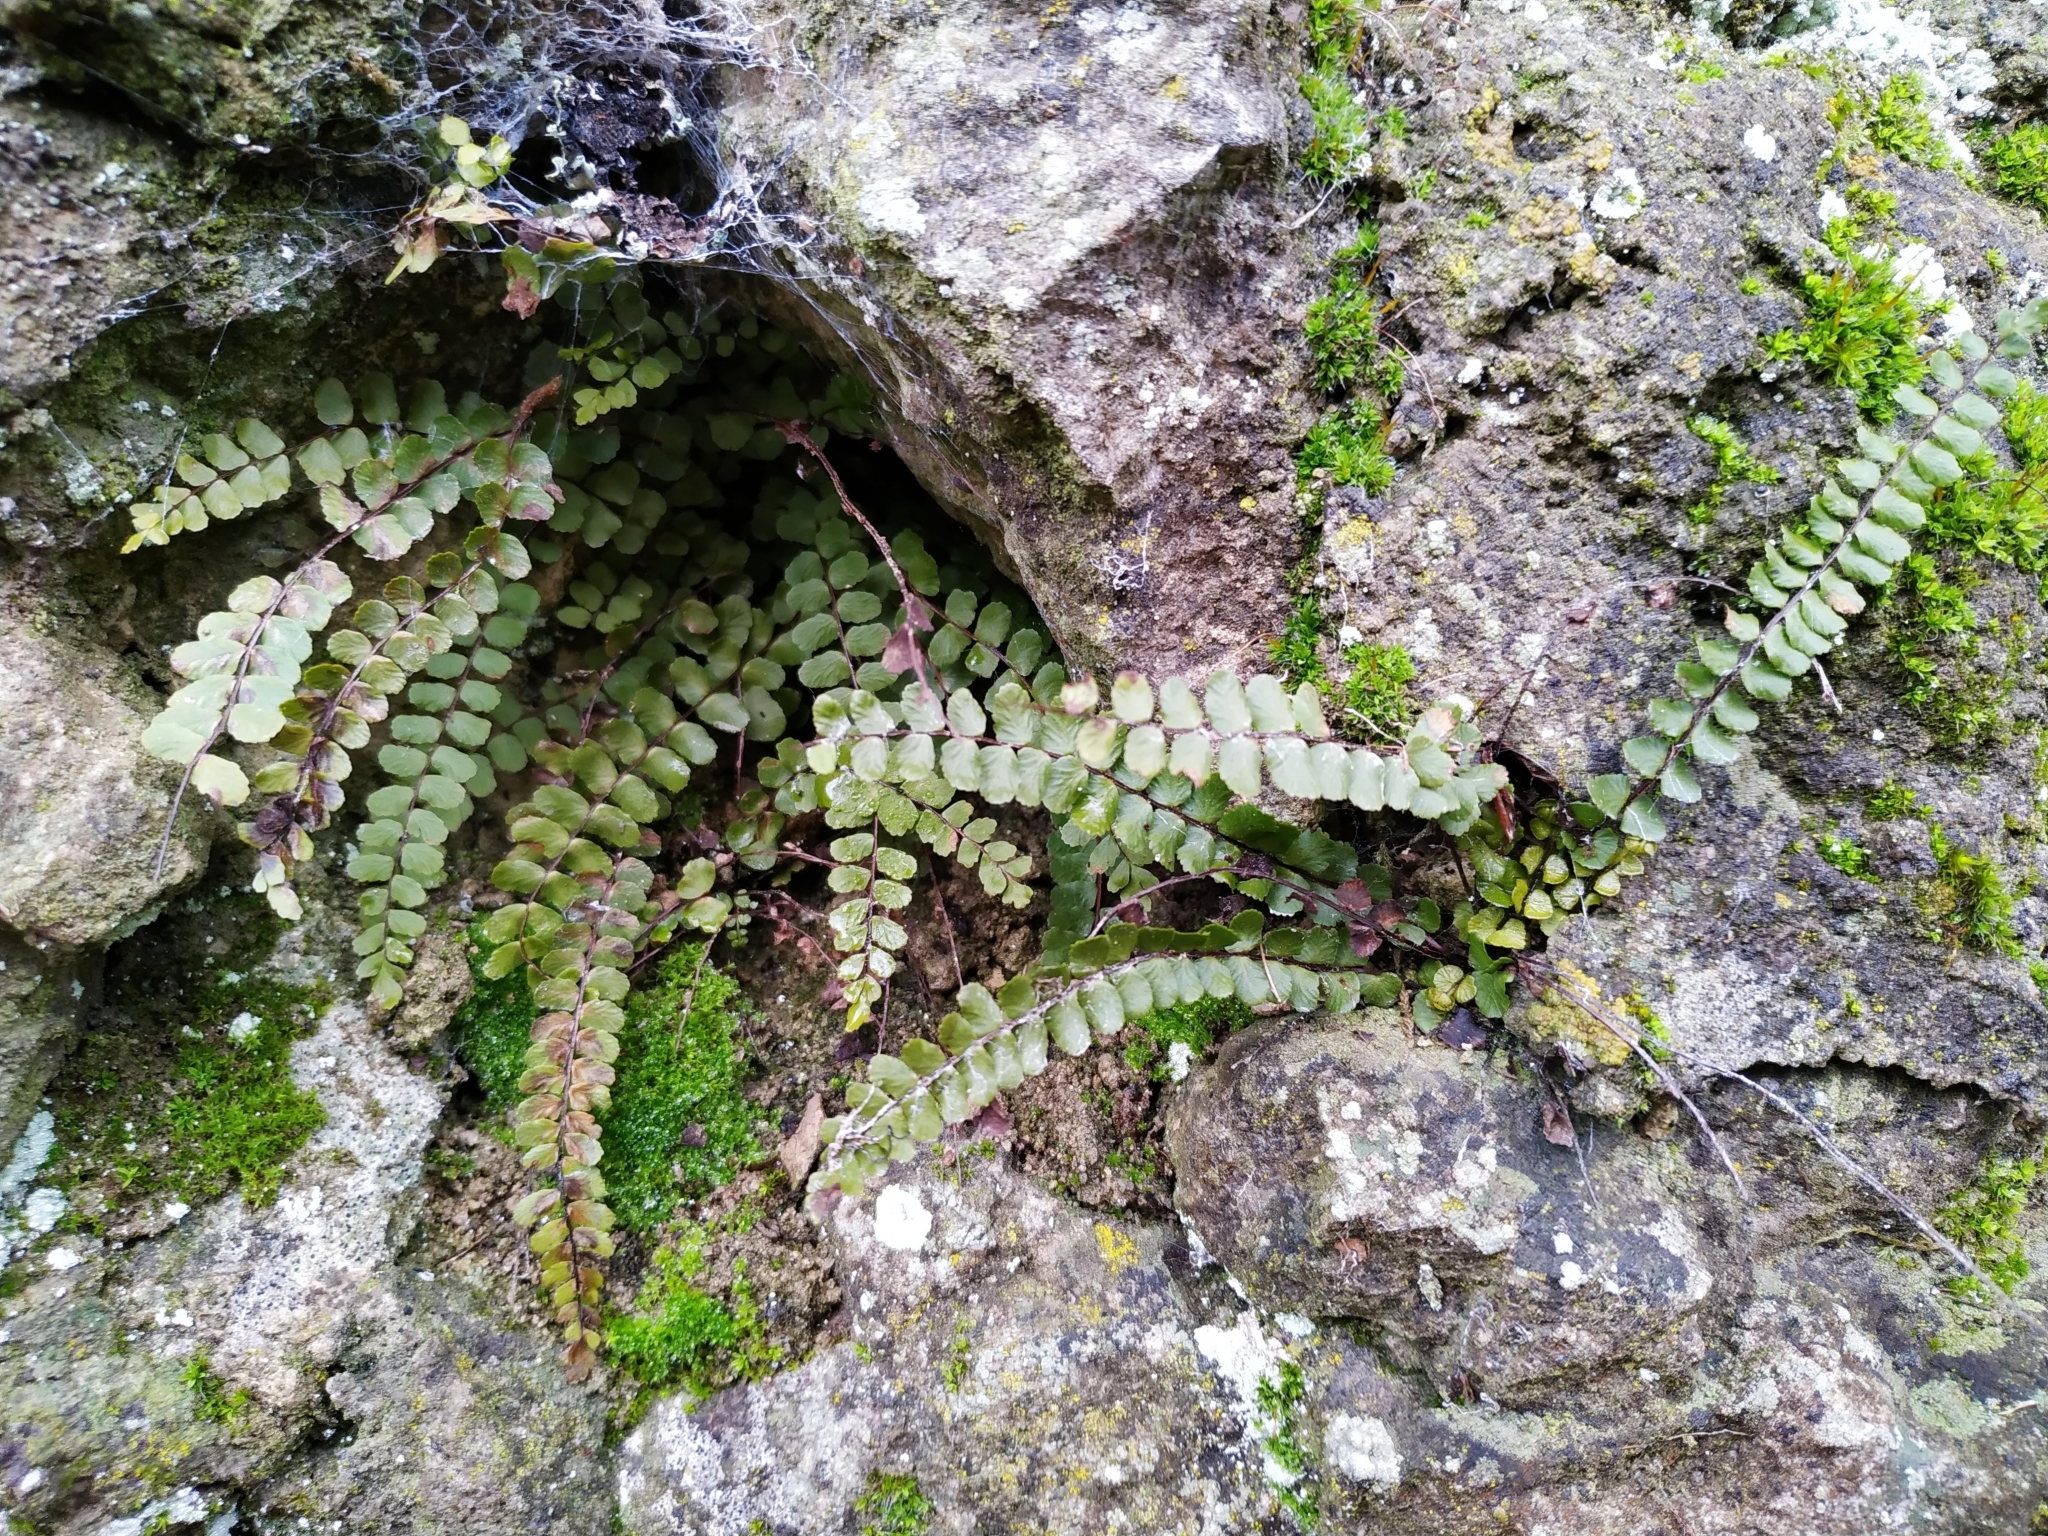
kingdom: Plantae
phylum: Tracheophyta
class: Polypodiopsida
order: Polypodiales
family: Aspleniaceae
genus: Asplenium
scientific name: Asplenium quadrivalens
